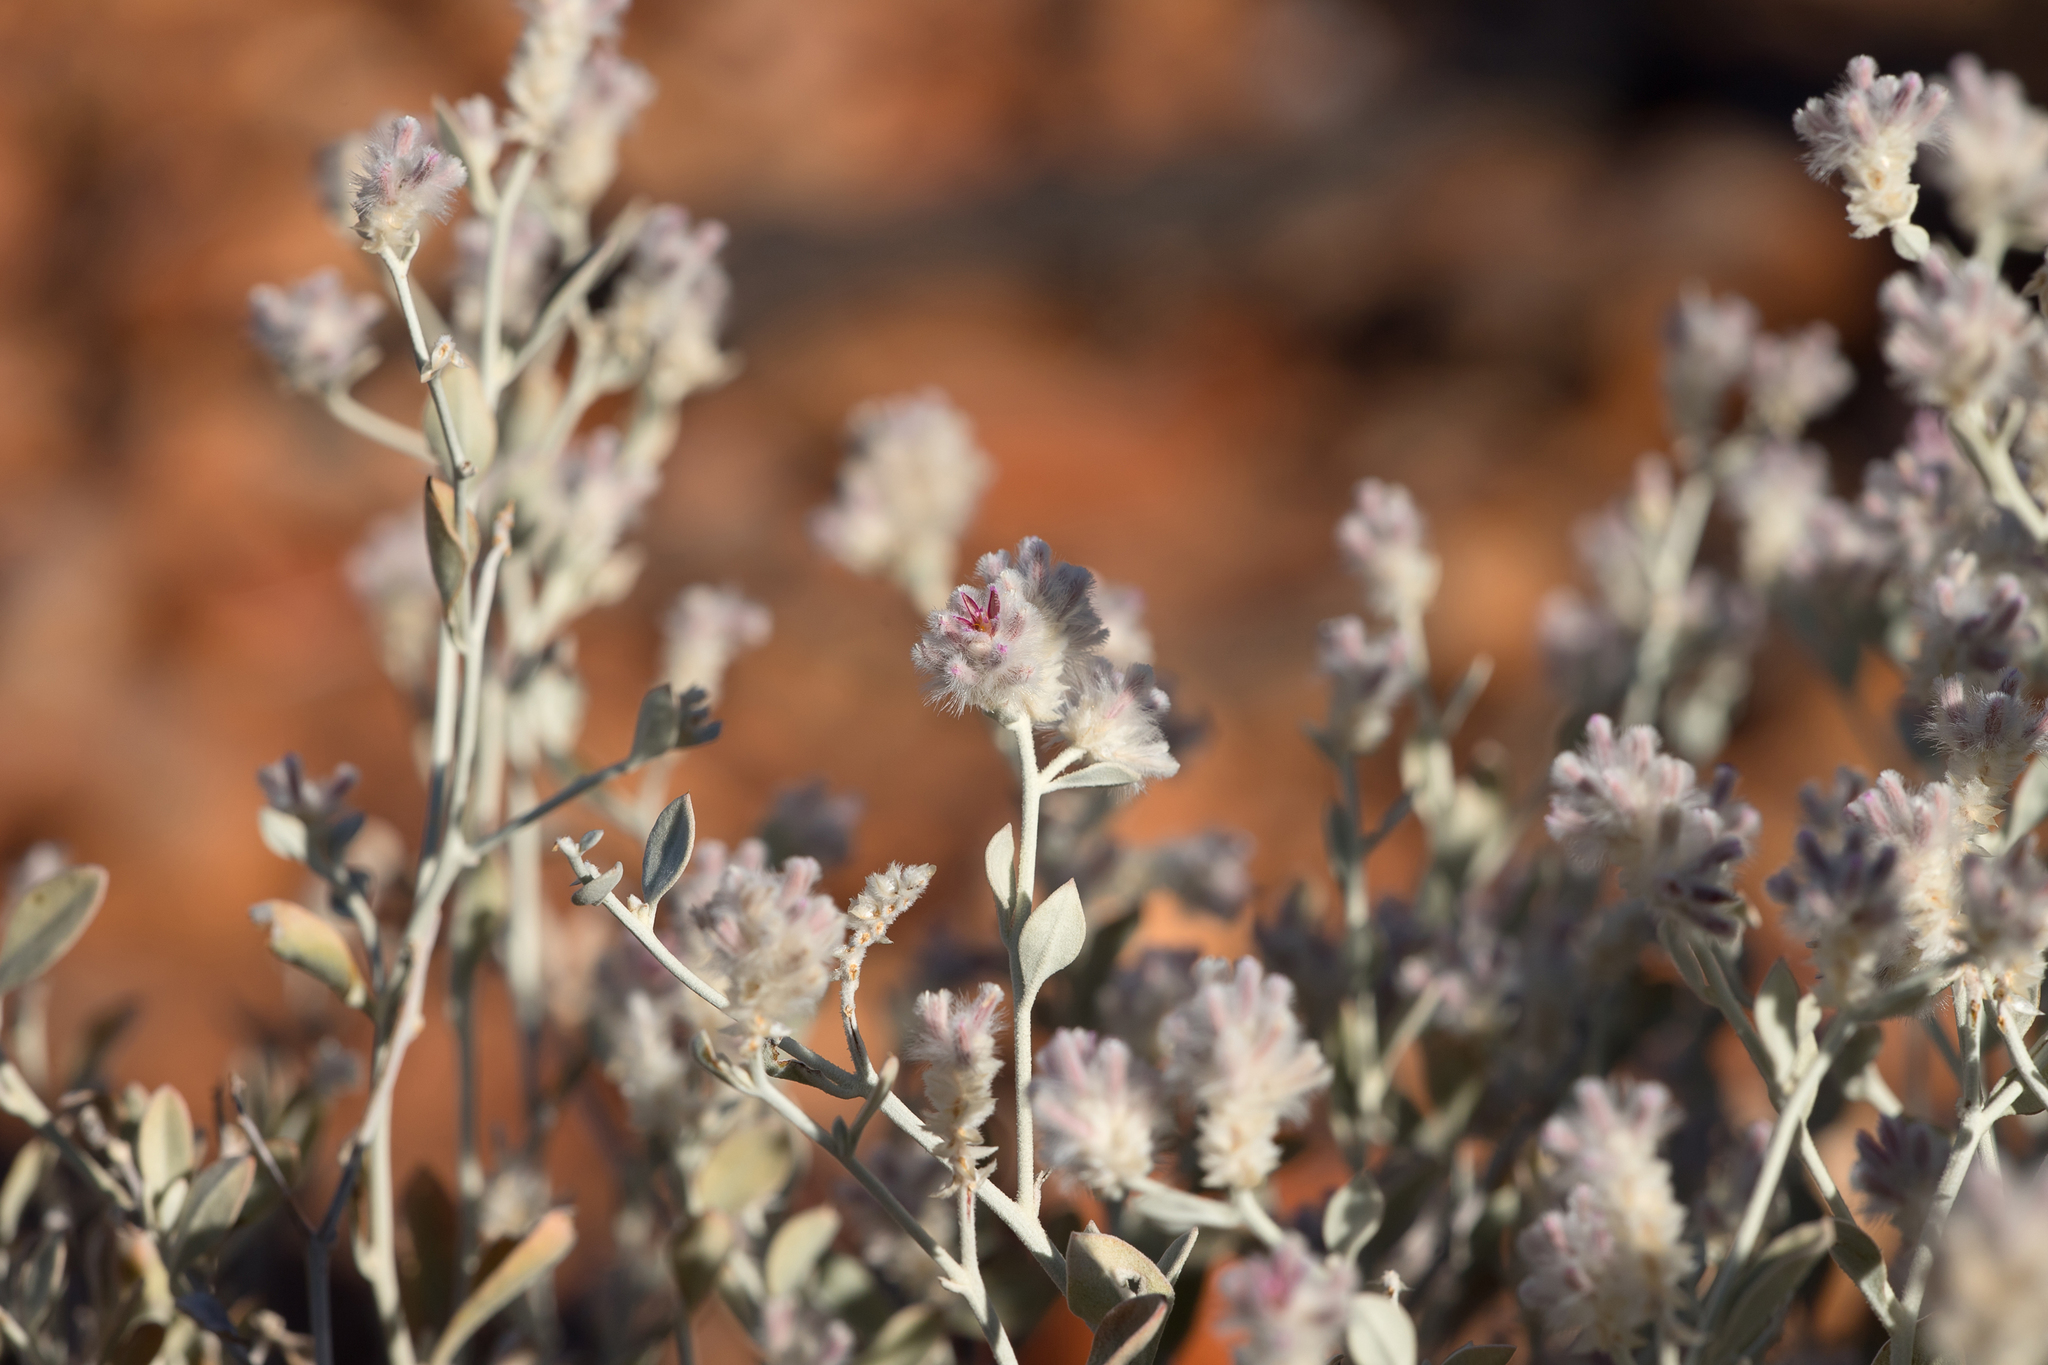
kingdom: Plantae
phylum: Tracheophyta
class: Magnoliopsida
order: Caryophyllales
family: Amaranthaceae
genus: Ptilotus
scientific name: Ptilotus obovatus
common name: Cottonbush
